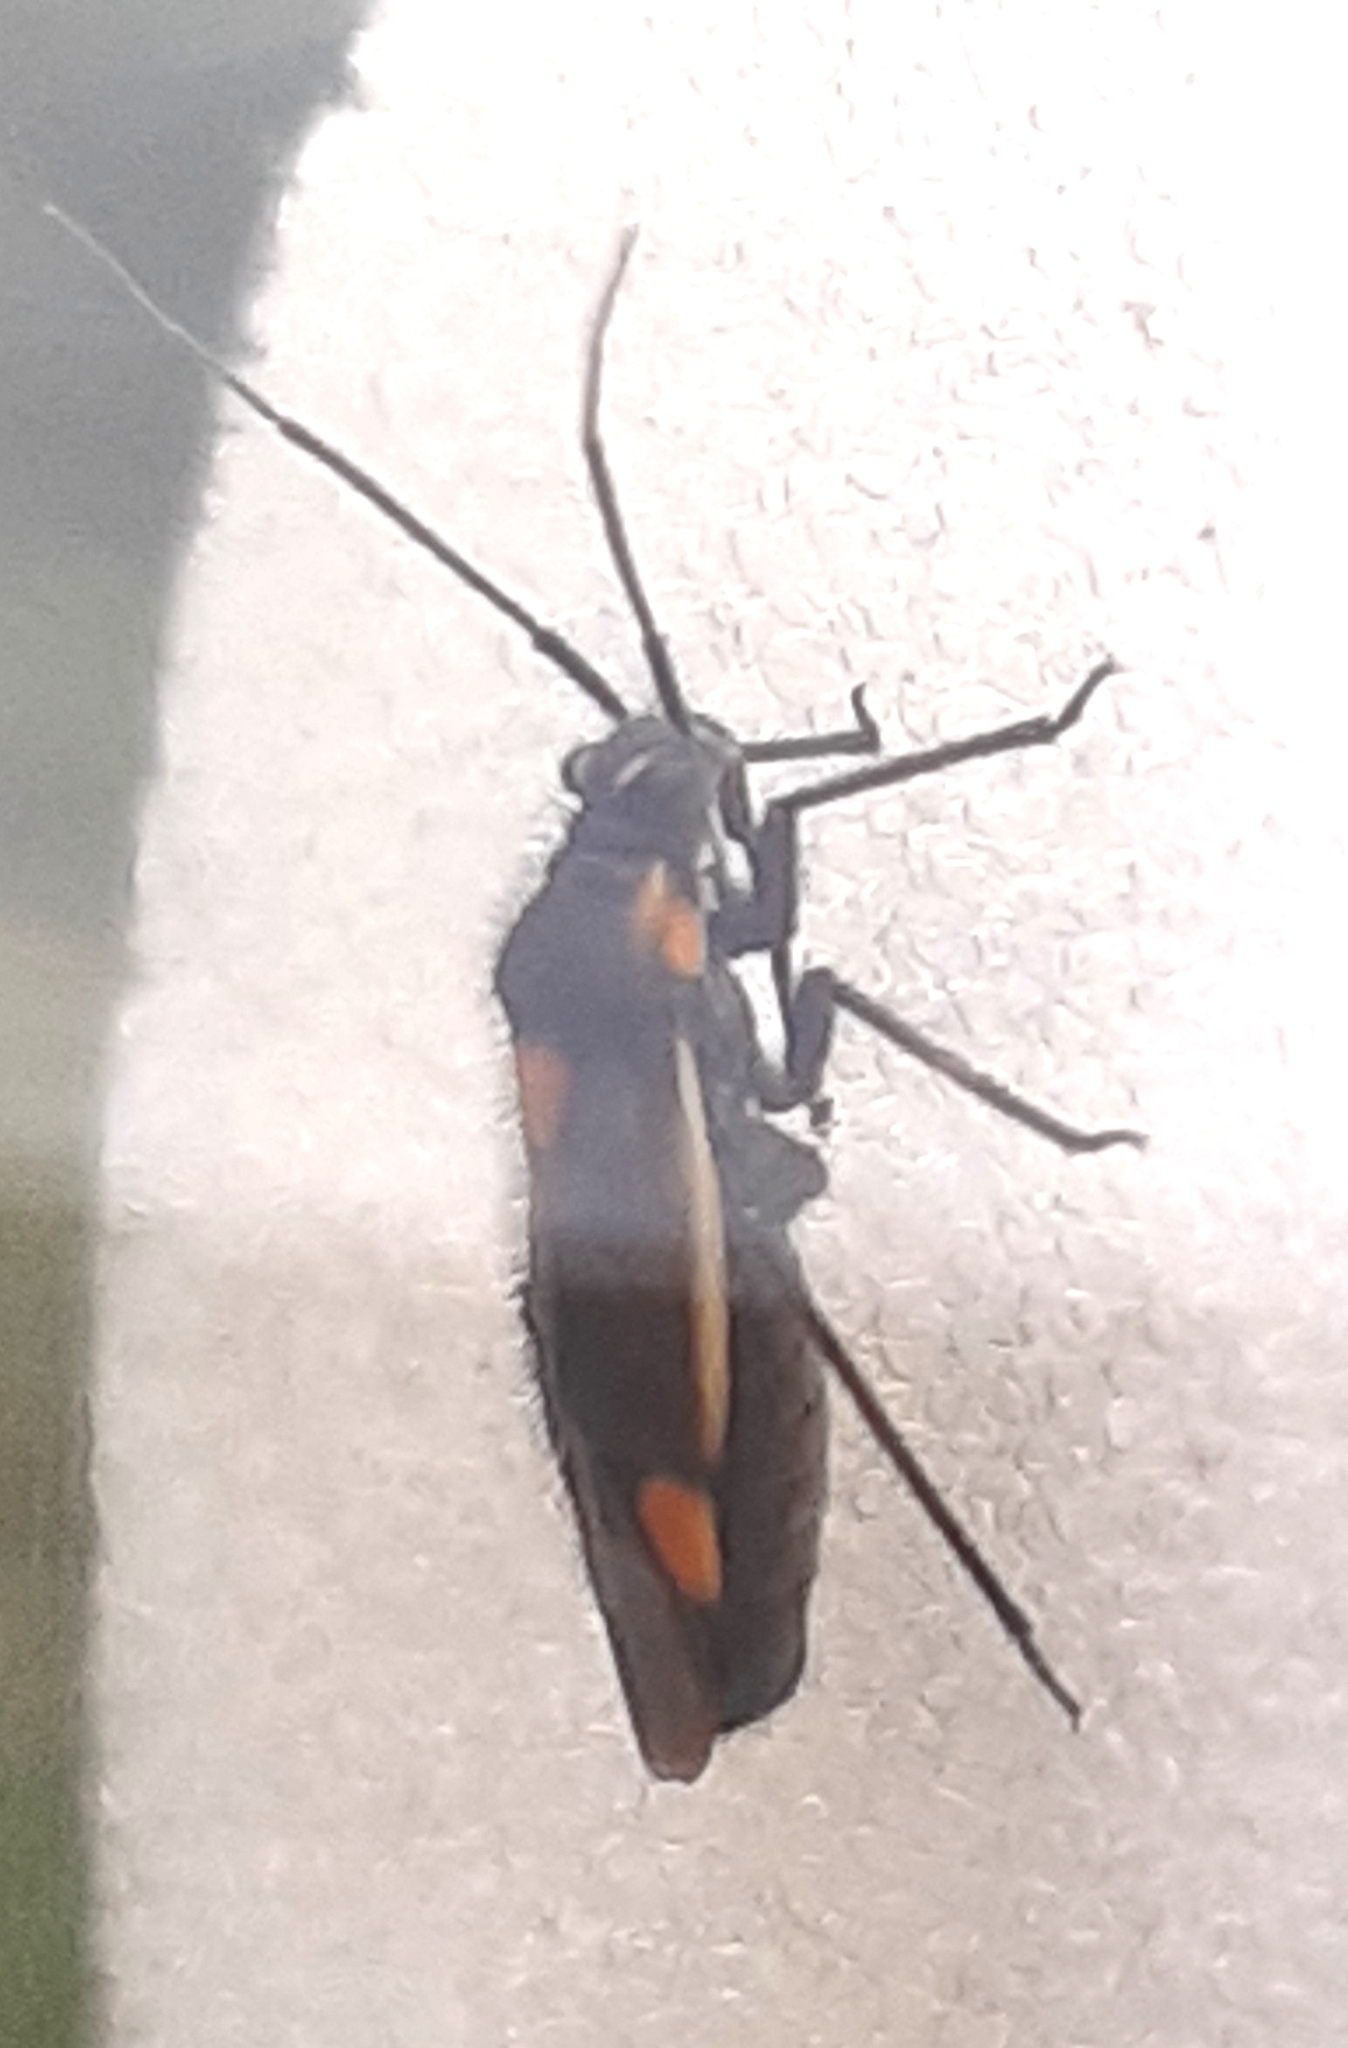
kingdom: Animalia
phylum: Arthropoda
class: Insecta
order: Hemiptera
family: Miridae
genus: Capsodes
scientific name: Capsodes gothicus
